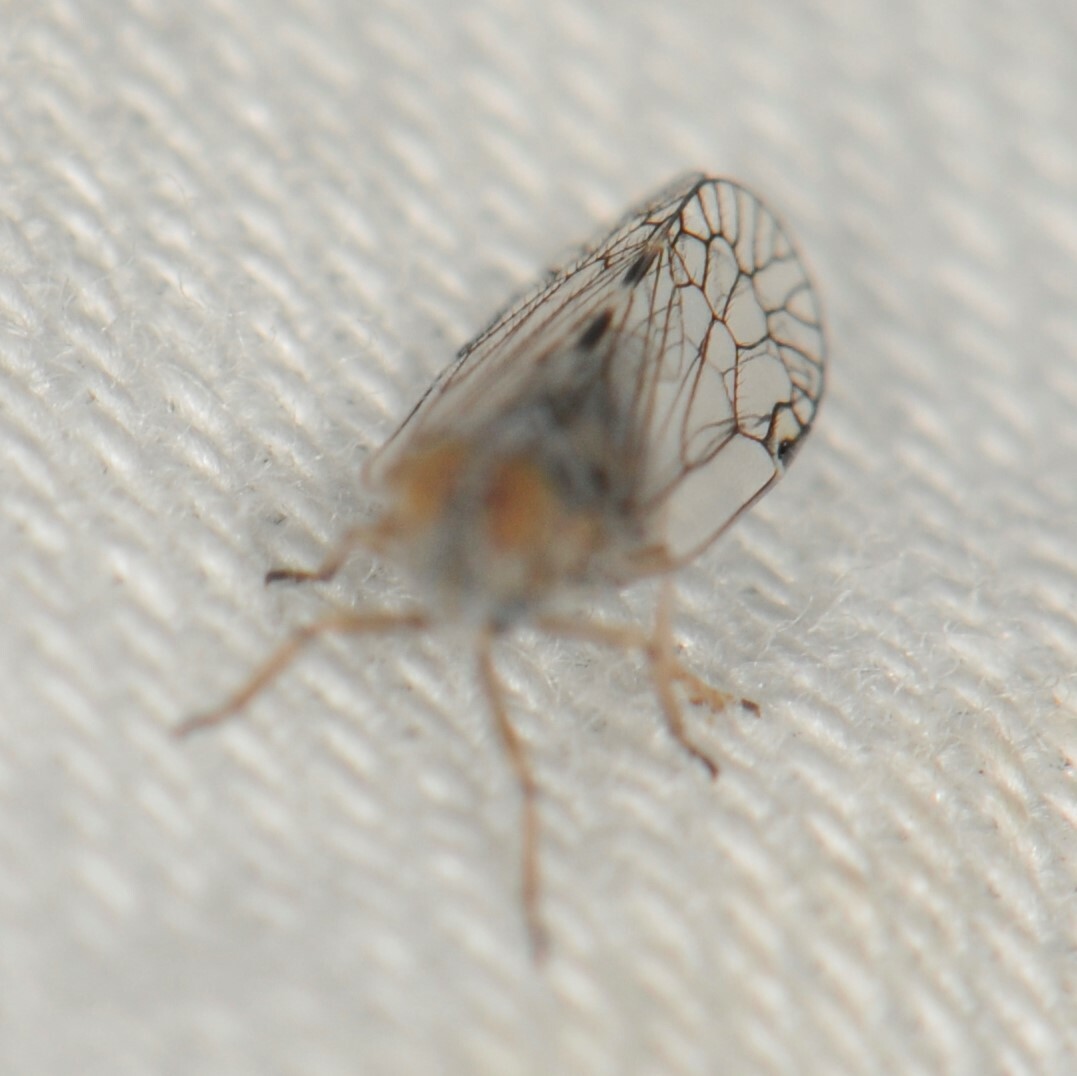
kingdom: Animalia
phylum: Arthropoda
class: Insecta
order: Hemiptera
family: Cixiidae
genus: Oecleus
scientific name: Oecleus
